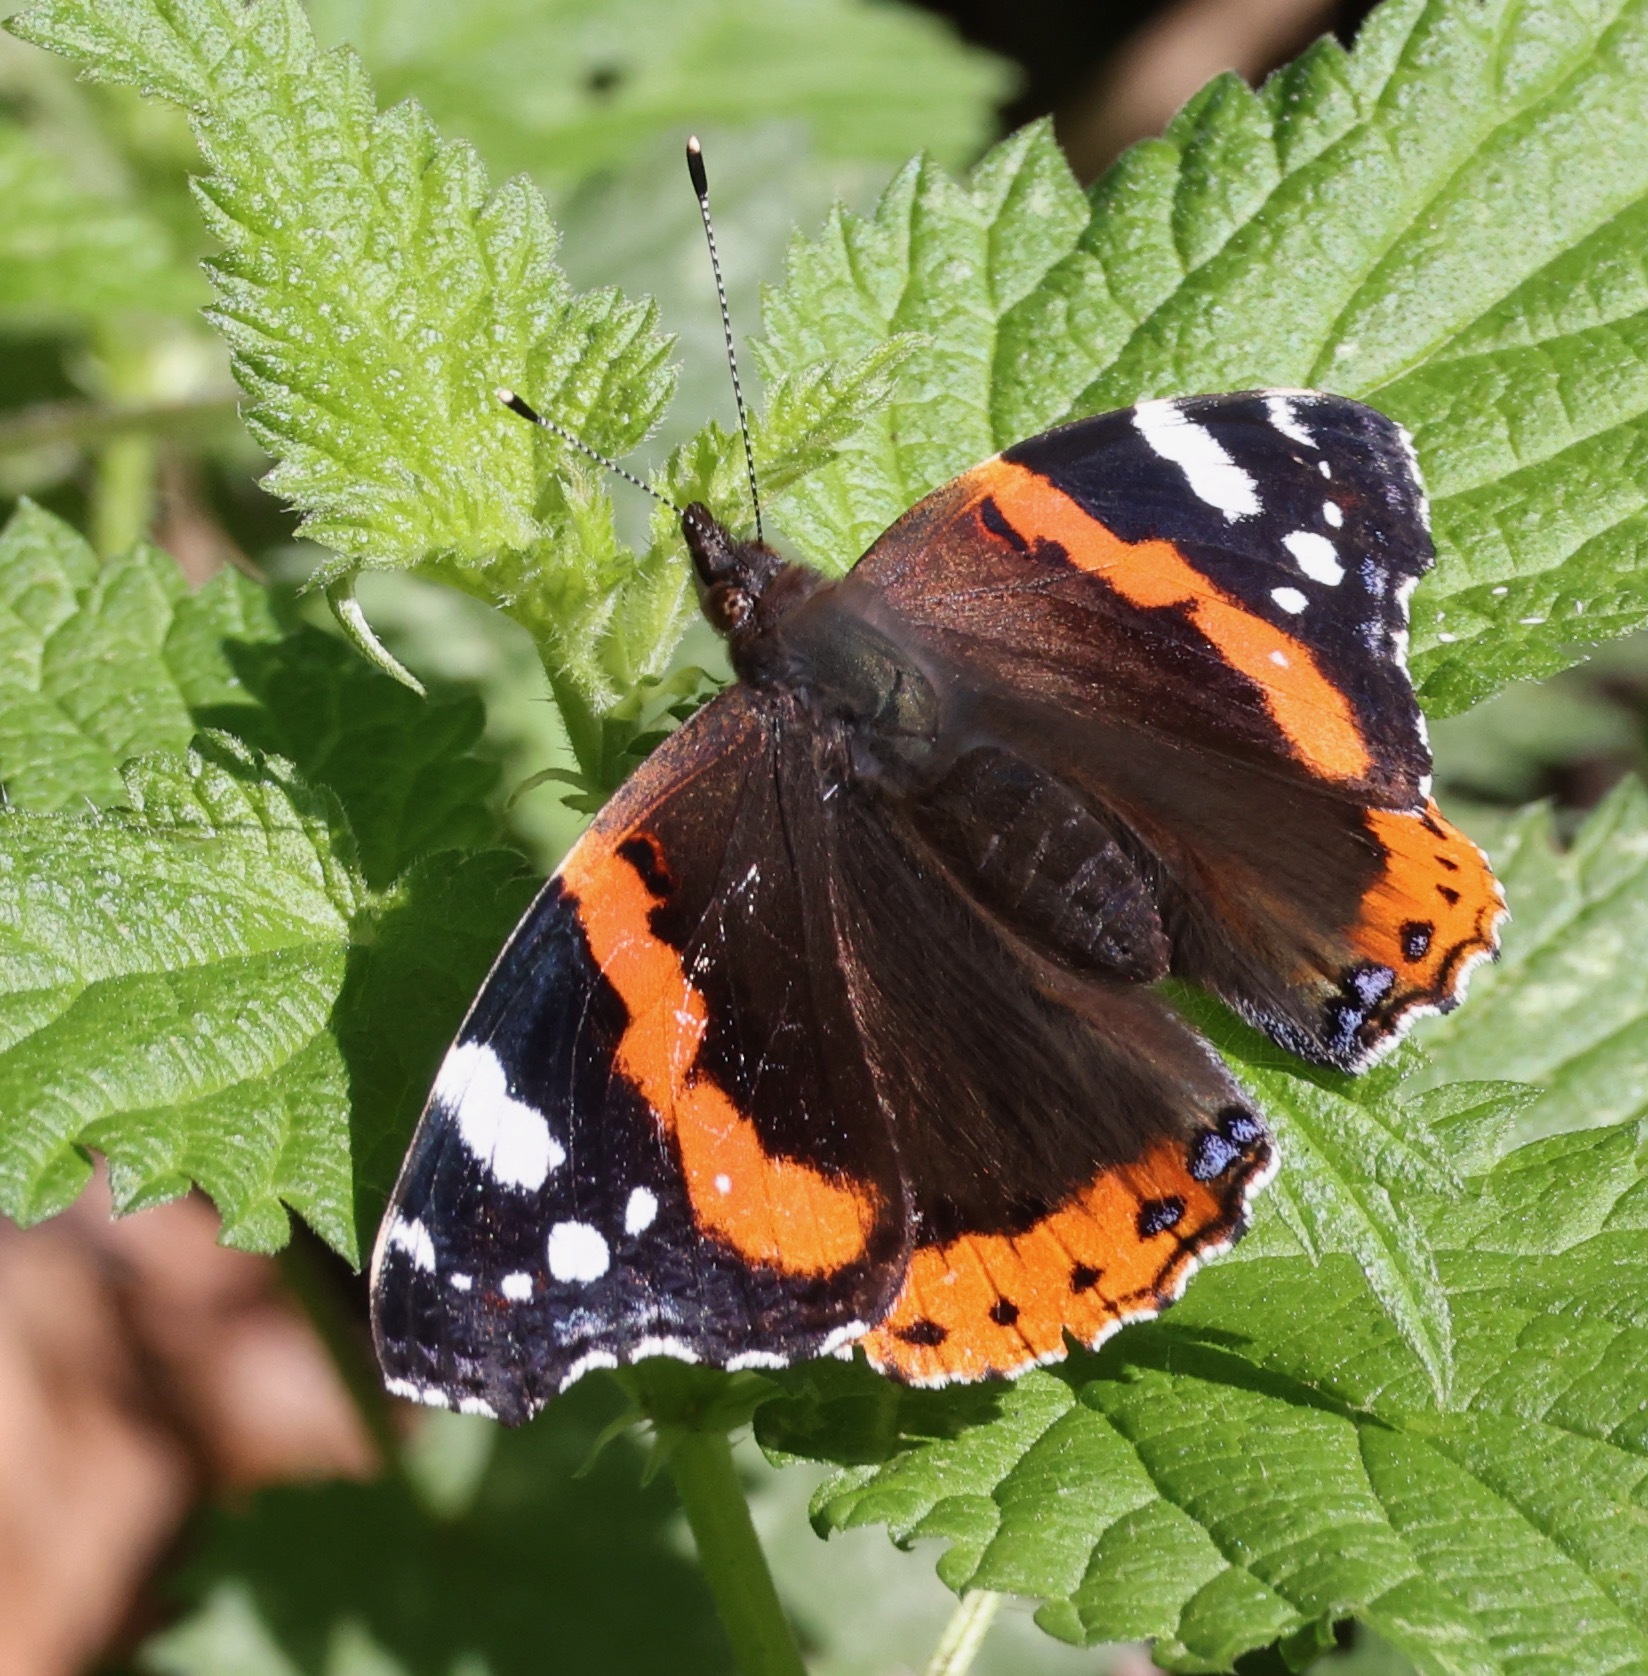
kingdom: Animalia
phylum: Arthropoda
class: Insecta
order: Lepidoptera
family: Nymphalidae
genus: Vanessa
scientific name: Vanessa atalanta
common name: Red admiral
